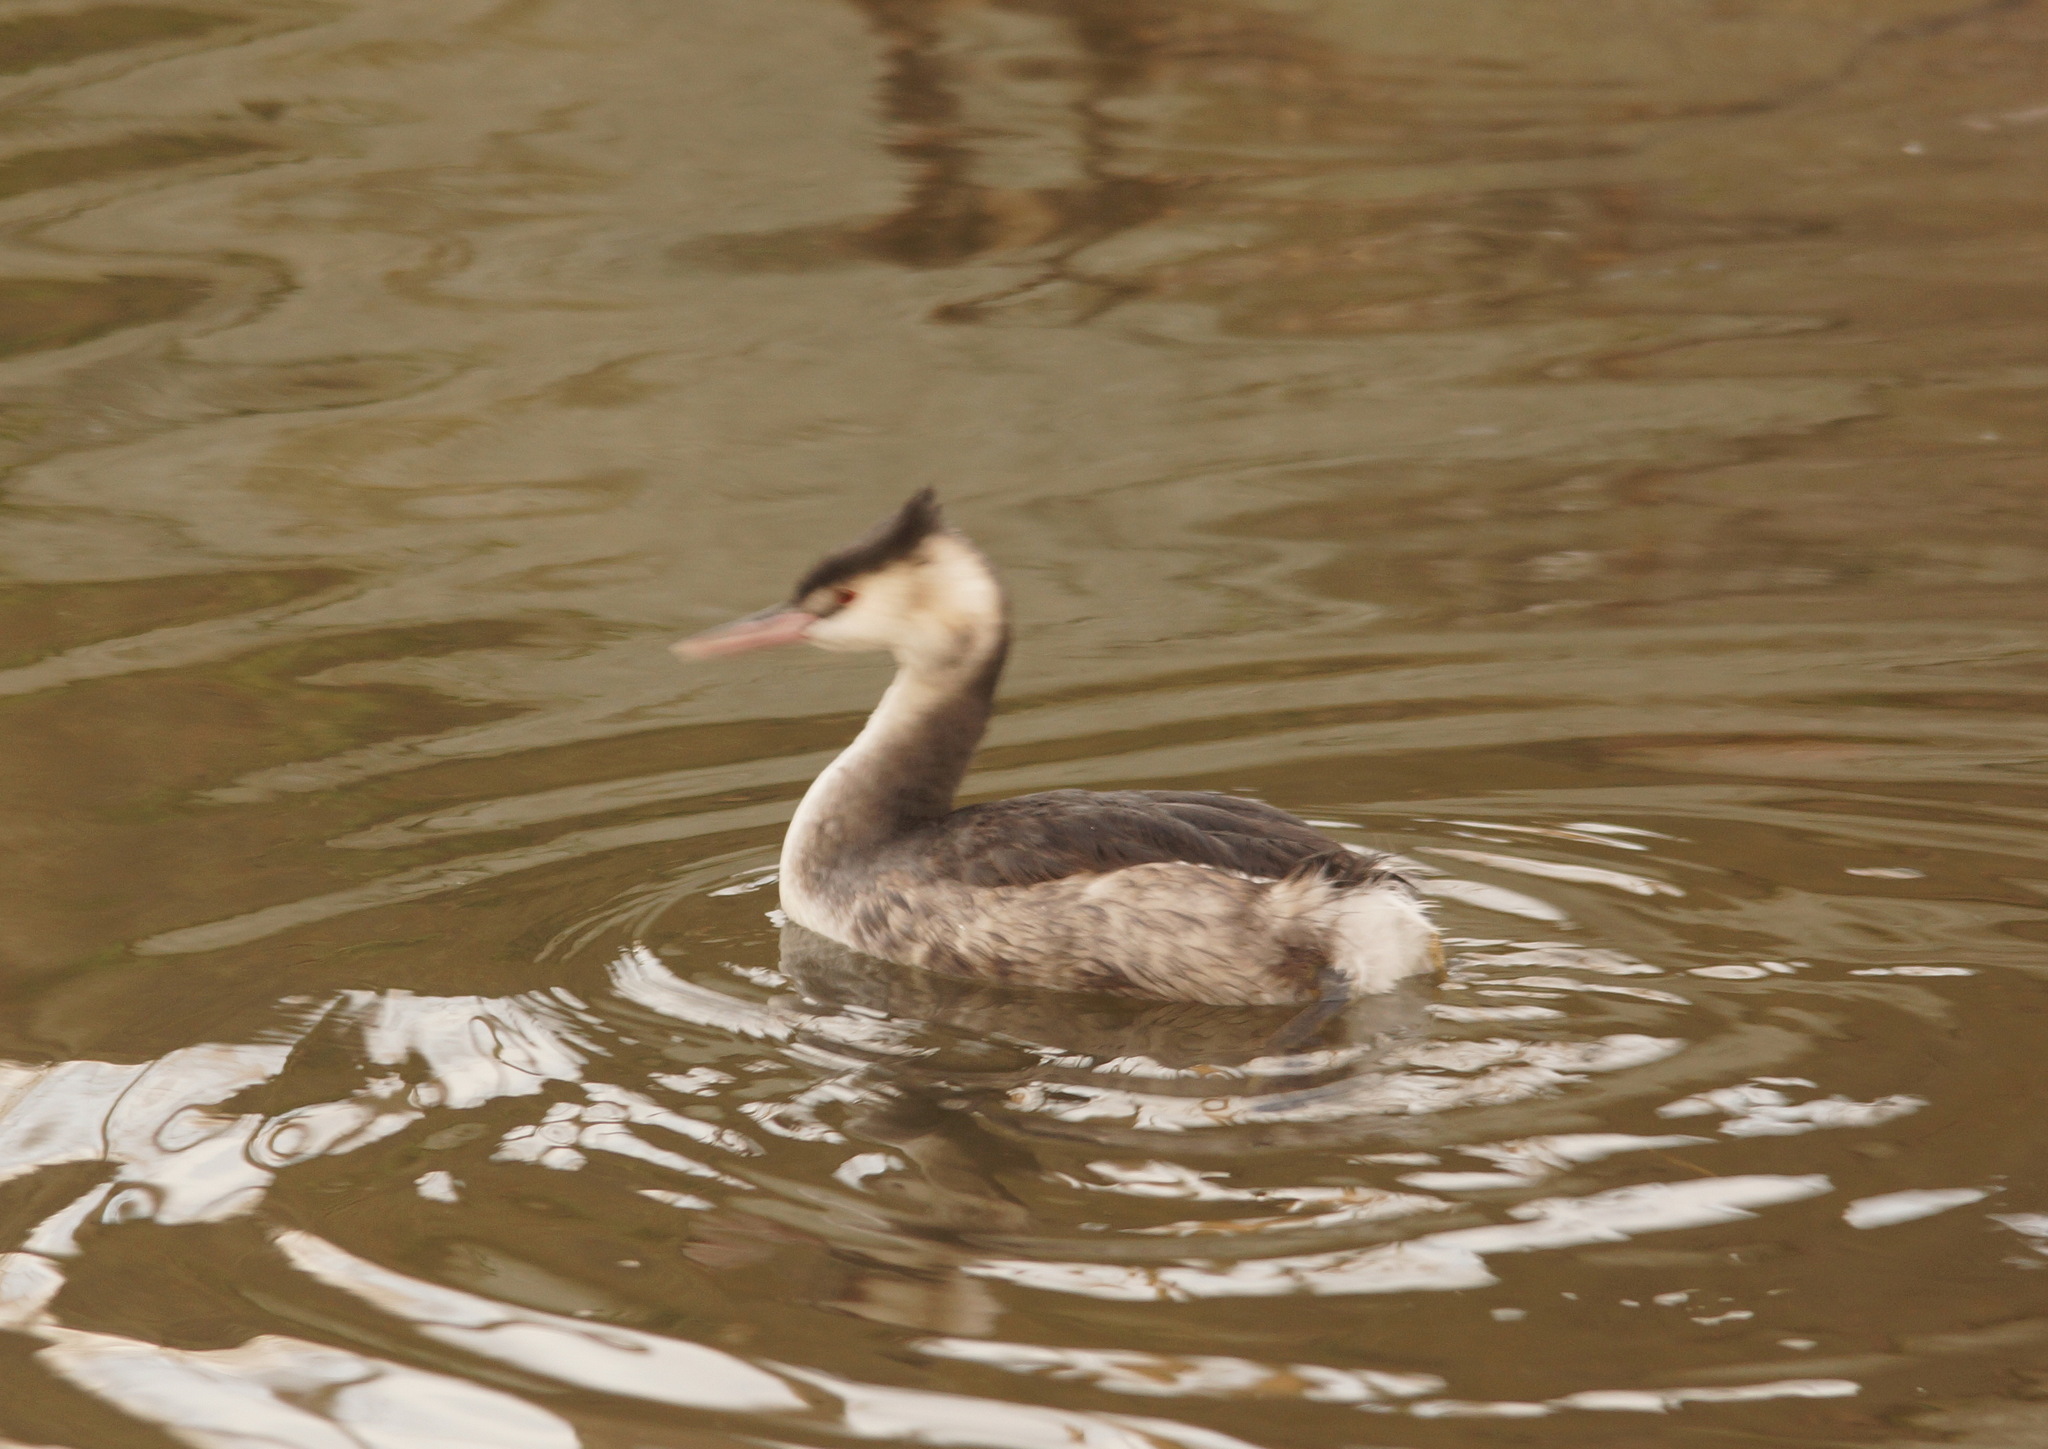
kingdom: Animalia
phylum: Chordata
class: Aves
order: Podicipediformes
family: Podicipedidae
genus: Podiceps
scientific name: Podiceps cristatus
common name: Great crested grebe
